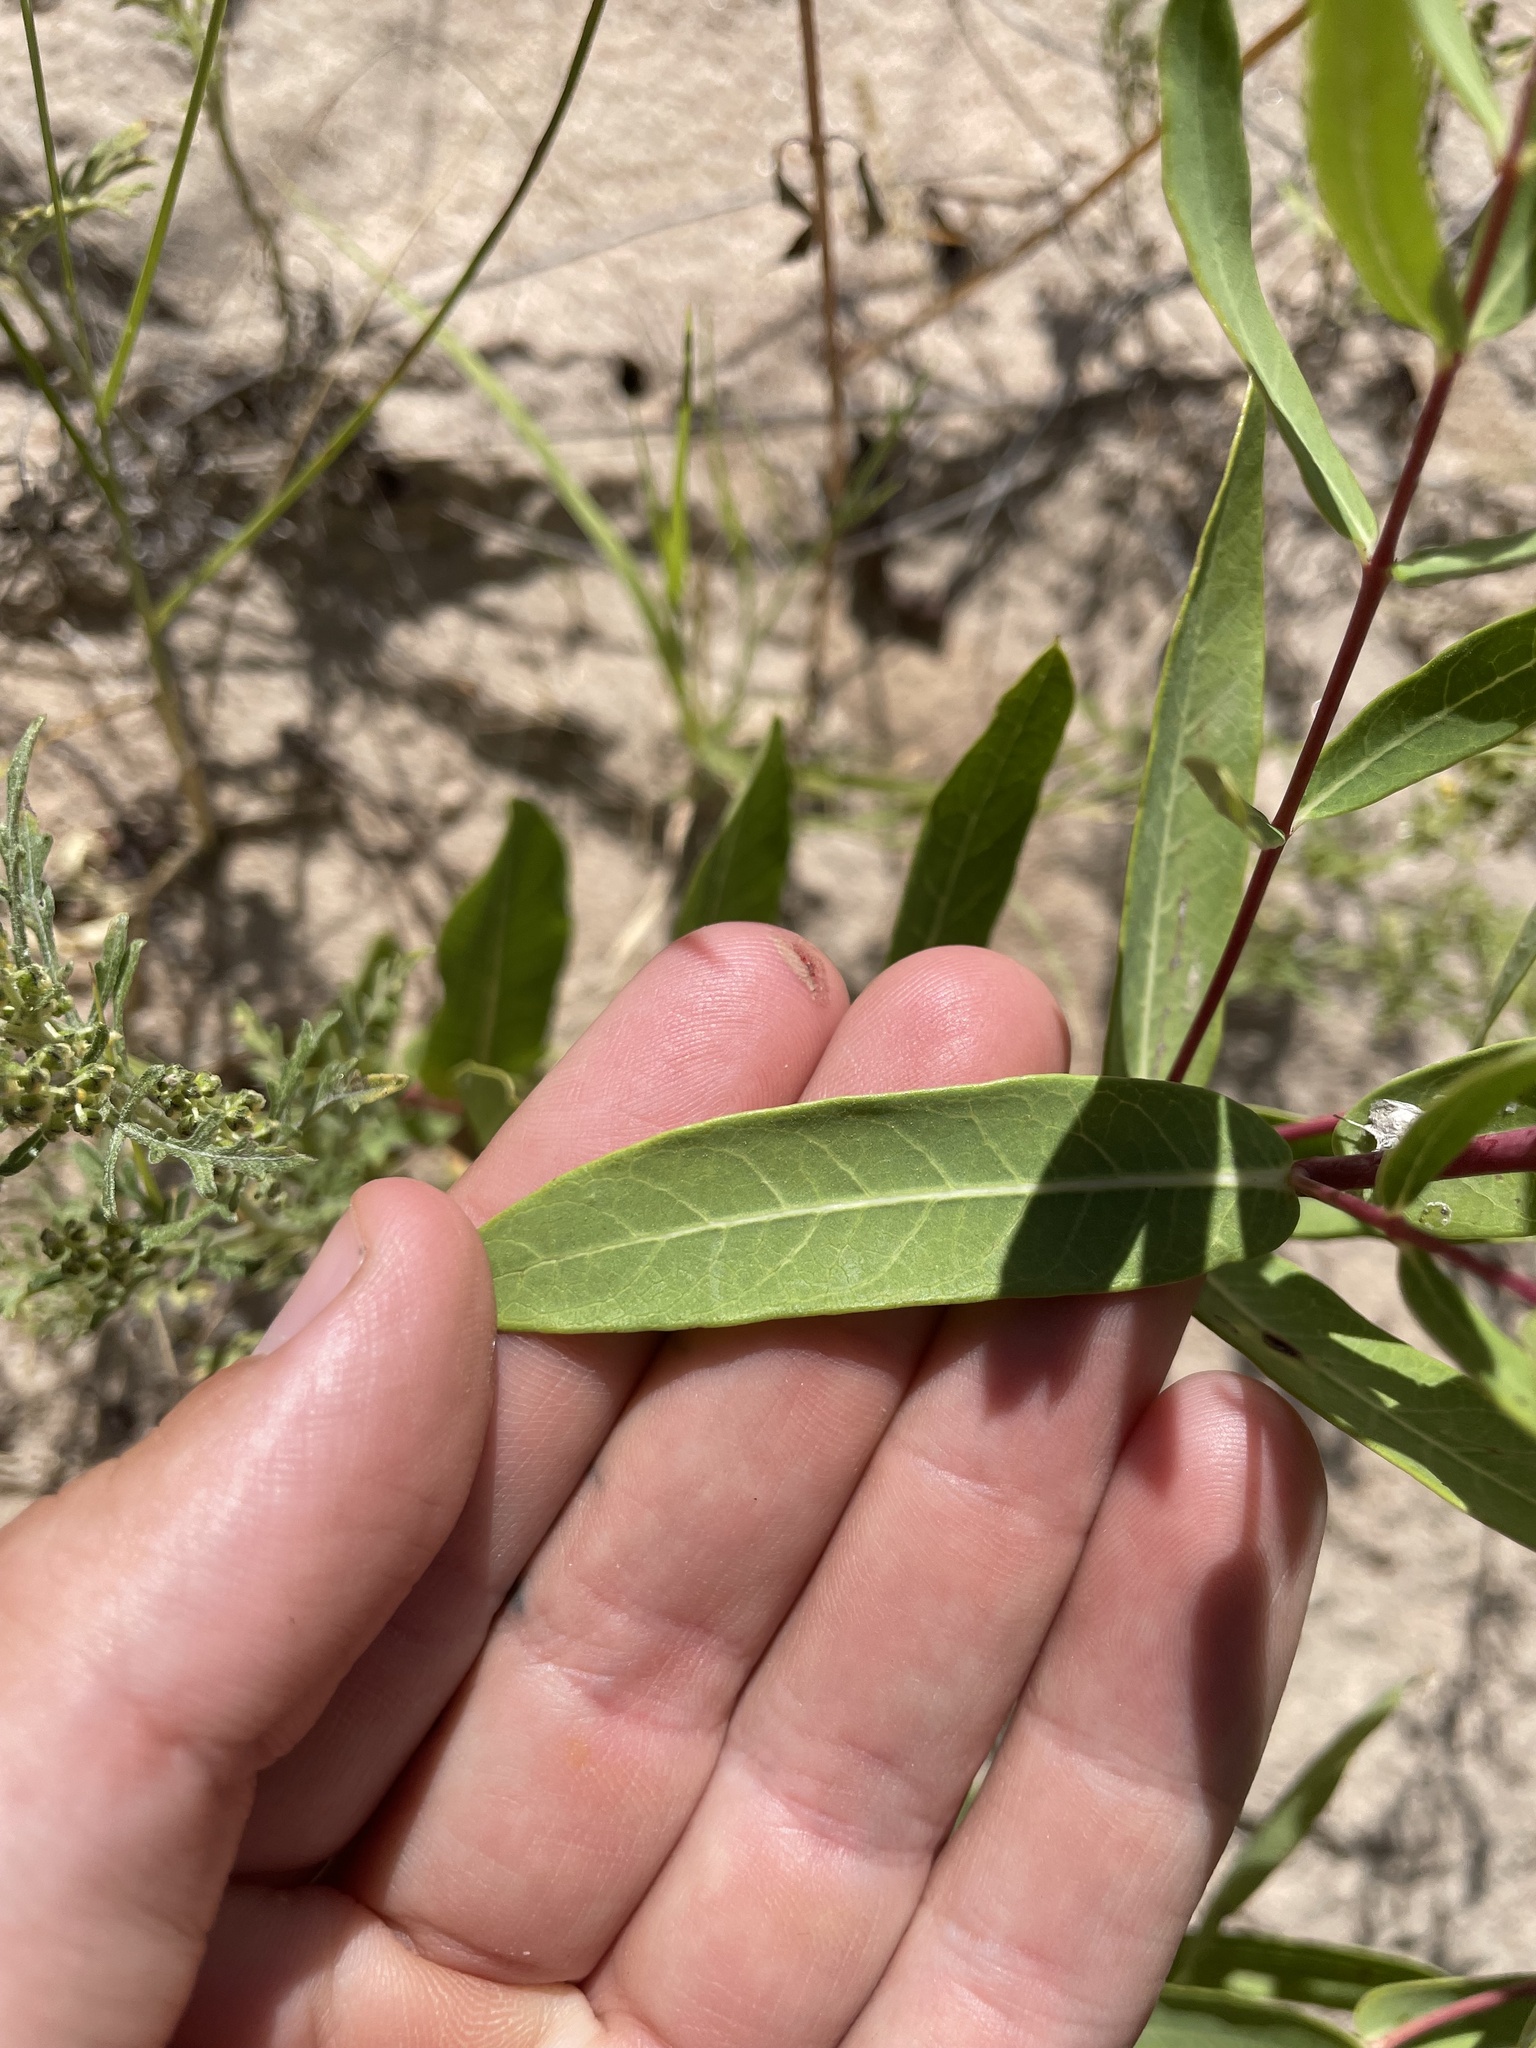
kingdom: Plantae
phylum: Tracheophyta
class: Magnoliopsida
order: Gentianales
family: Apocynaceae
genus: Apocynum
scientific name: Apocynum cannabinum
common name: Hemp dogbane
